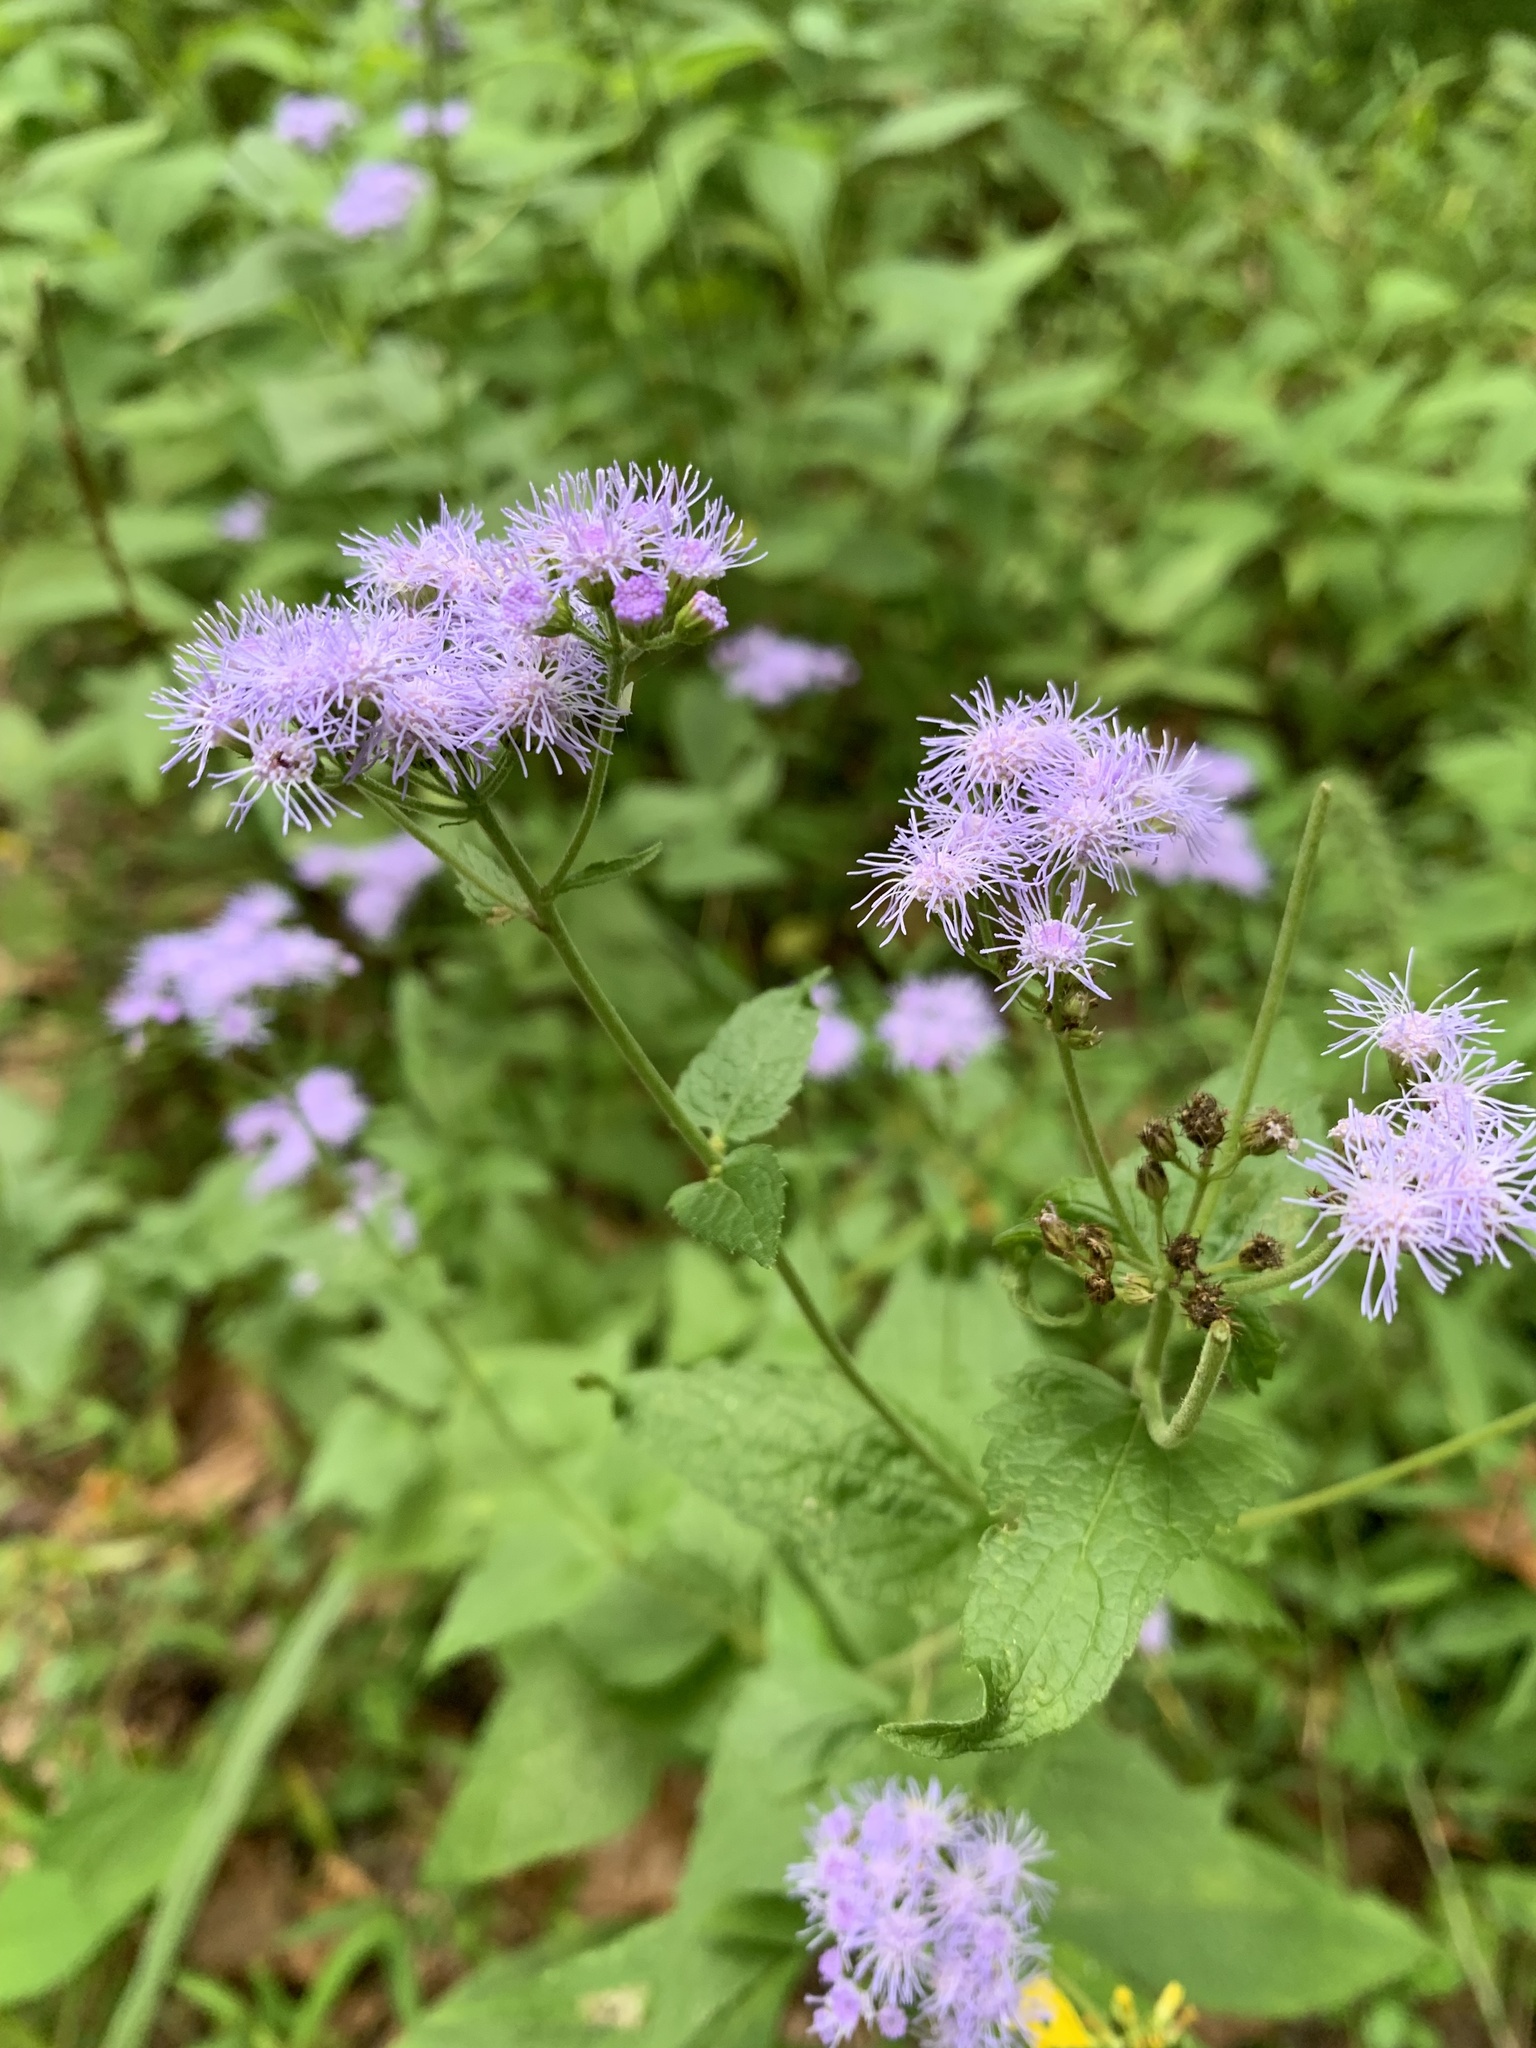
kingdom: Plantae
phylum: Tracheophyta
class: Magnoliopsida
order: Asterales
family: Asteraceae
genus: Conoclinium
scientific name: Conoclinium coelestinum
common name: Blue mistflower
